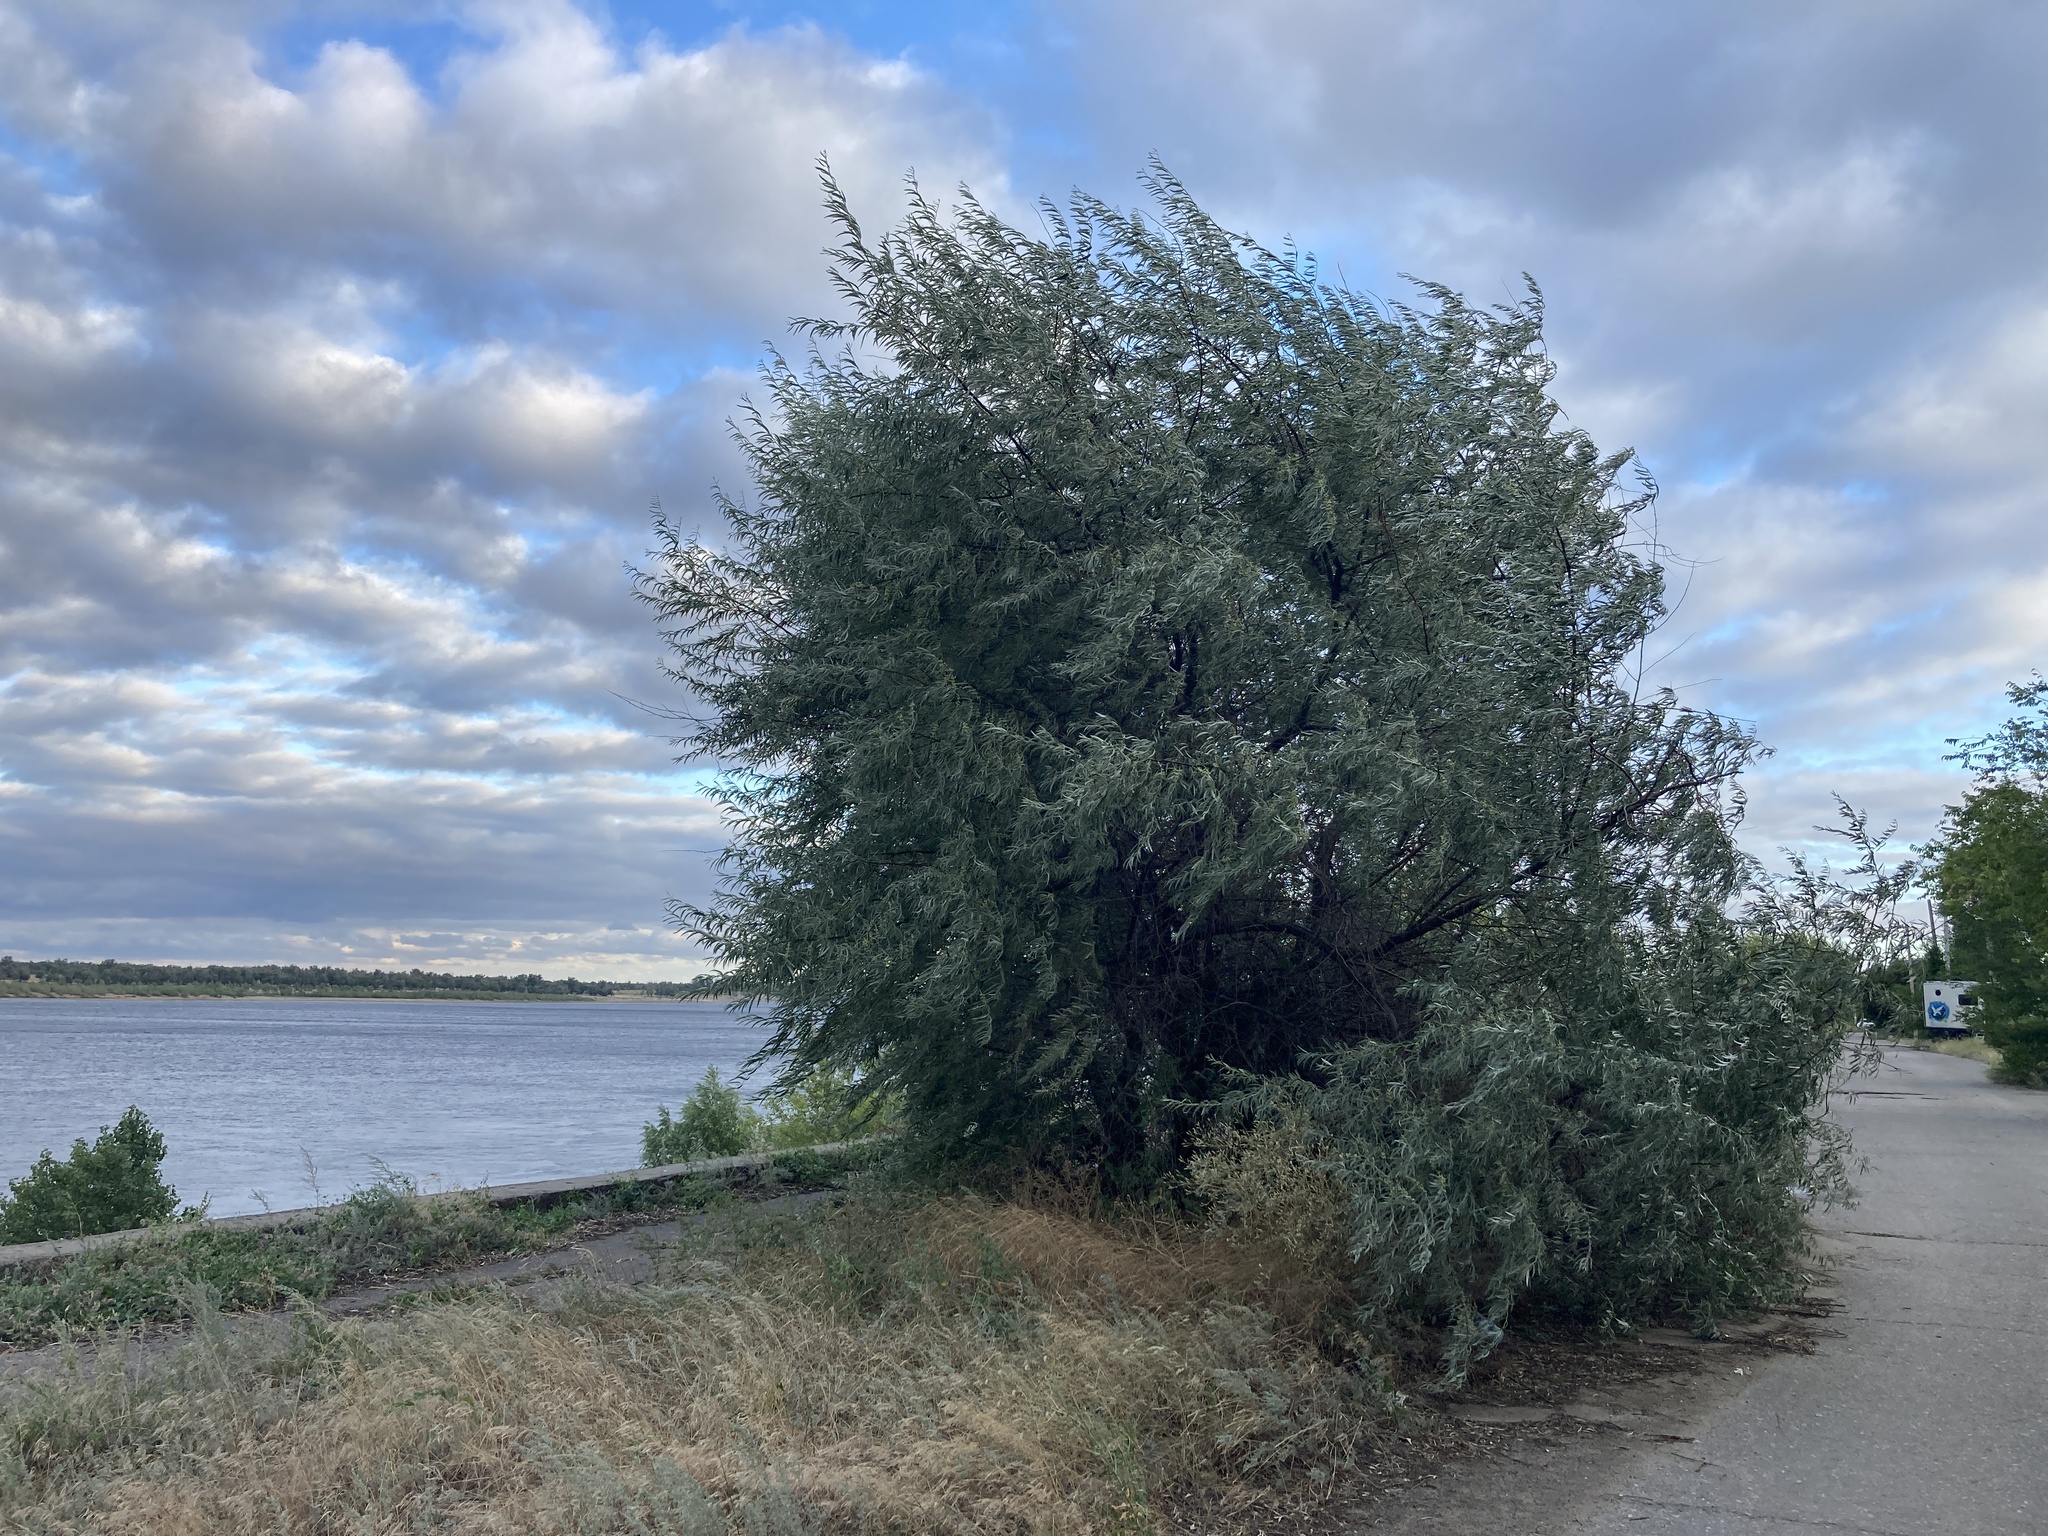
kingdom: Plantae
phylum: Tracheophyta
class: Magnoliopsida
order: Rosales
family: Elaeagnaceae
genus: Elaeagnus
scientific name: Elaeagnus angustifolia
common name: Russian olive
